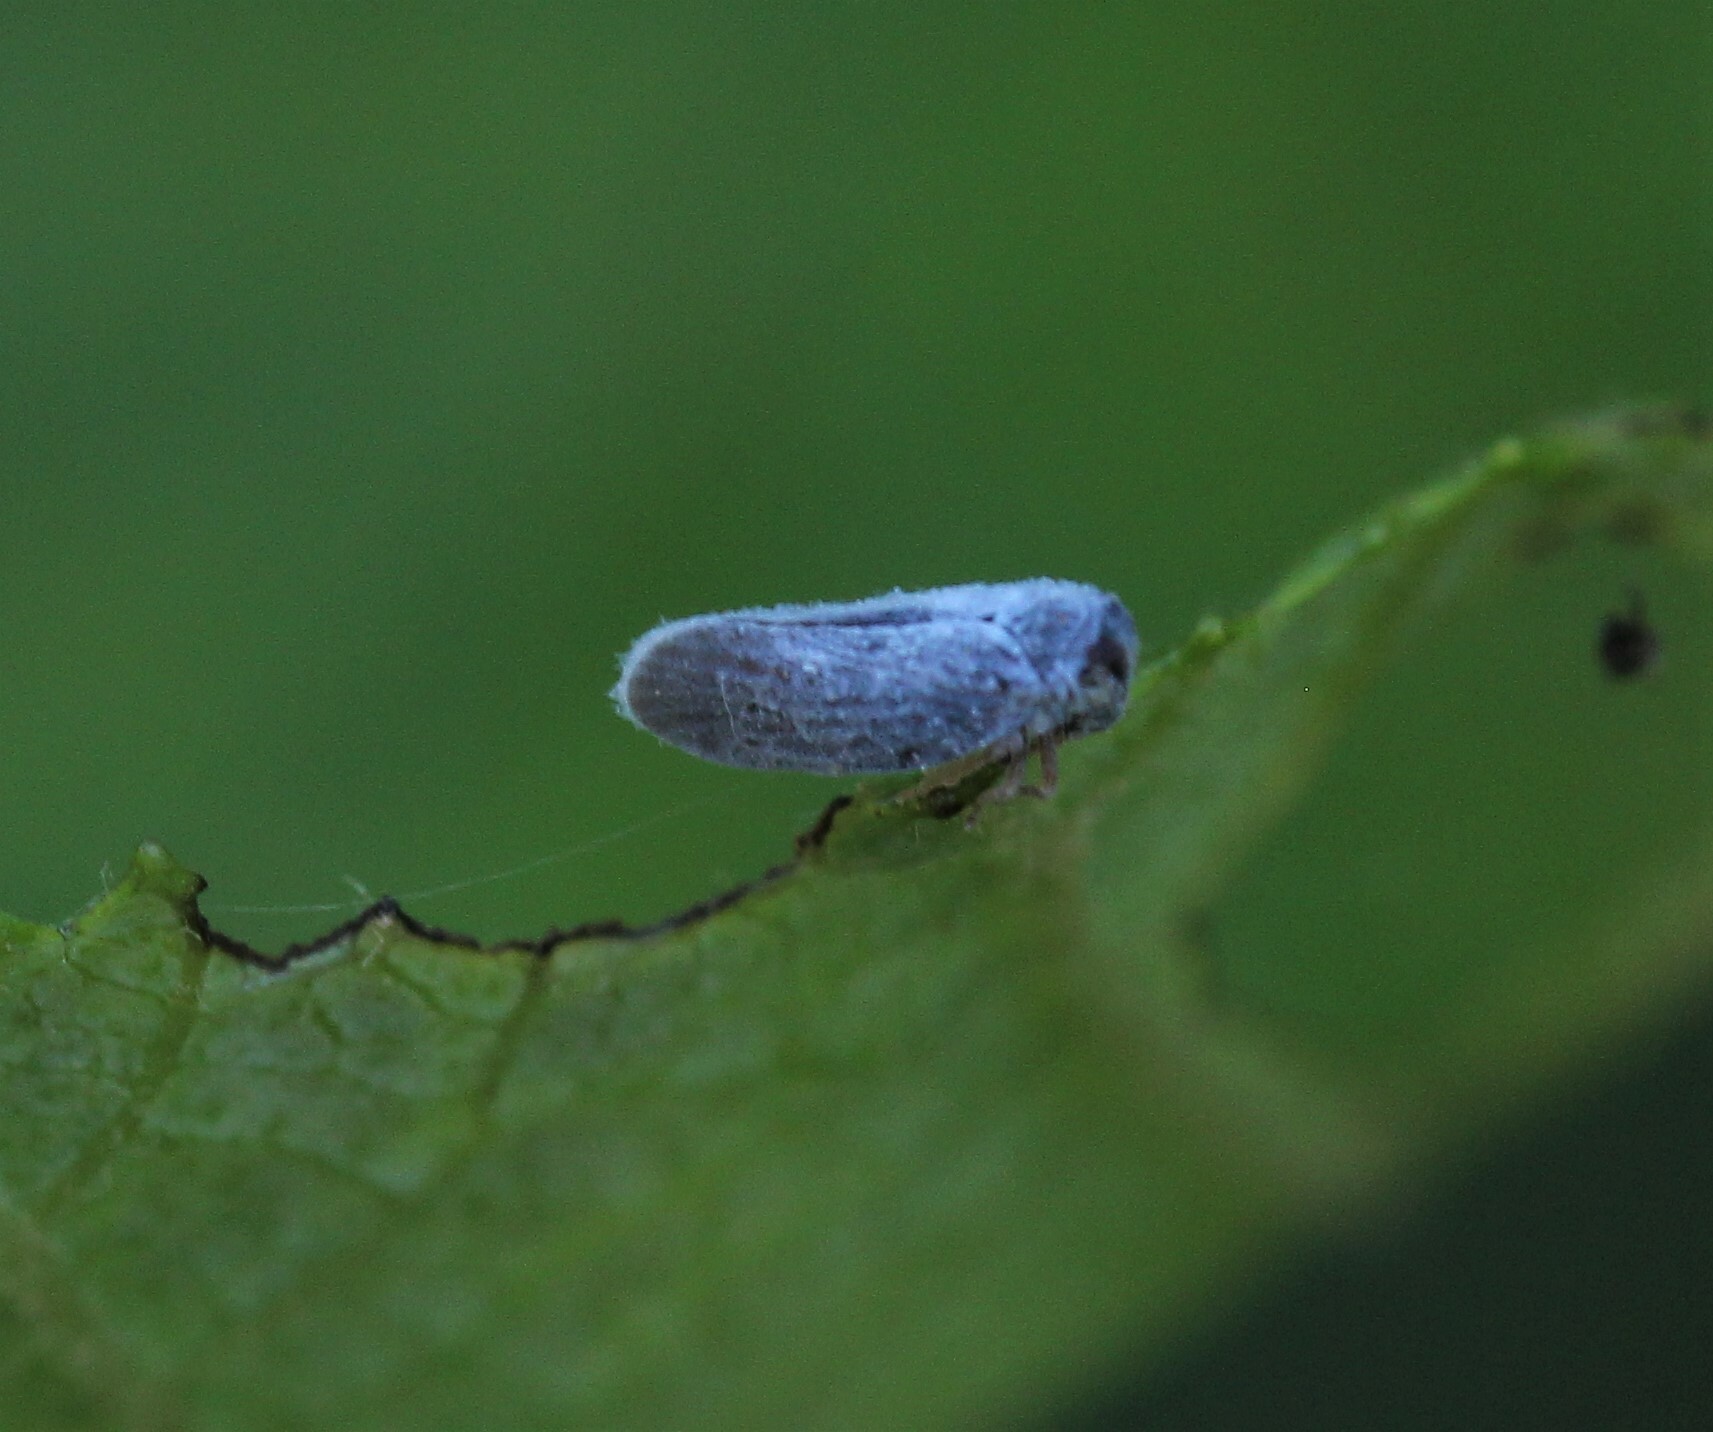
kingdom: Animalia
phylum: Arthropoda
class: Insecta
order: Hemiptera
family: Derbidae
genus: Cedusa
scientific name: Cedusa obscura
